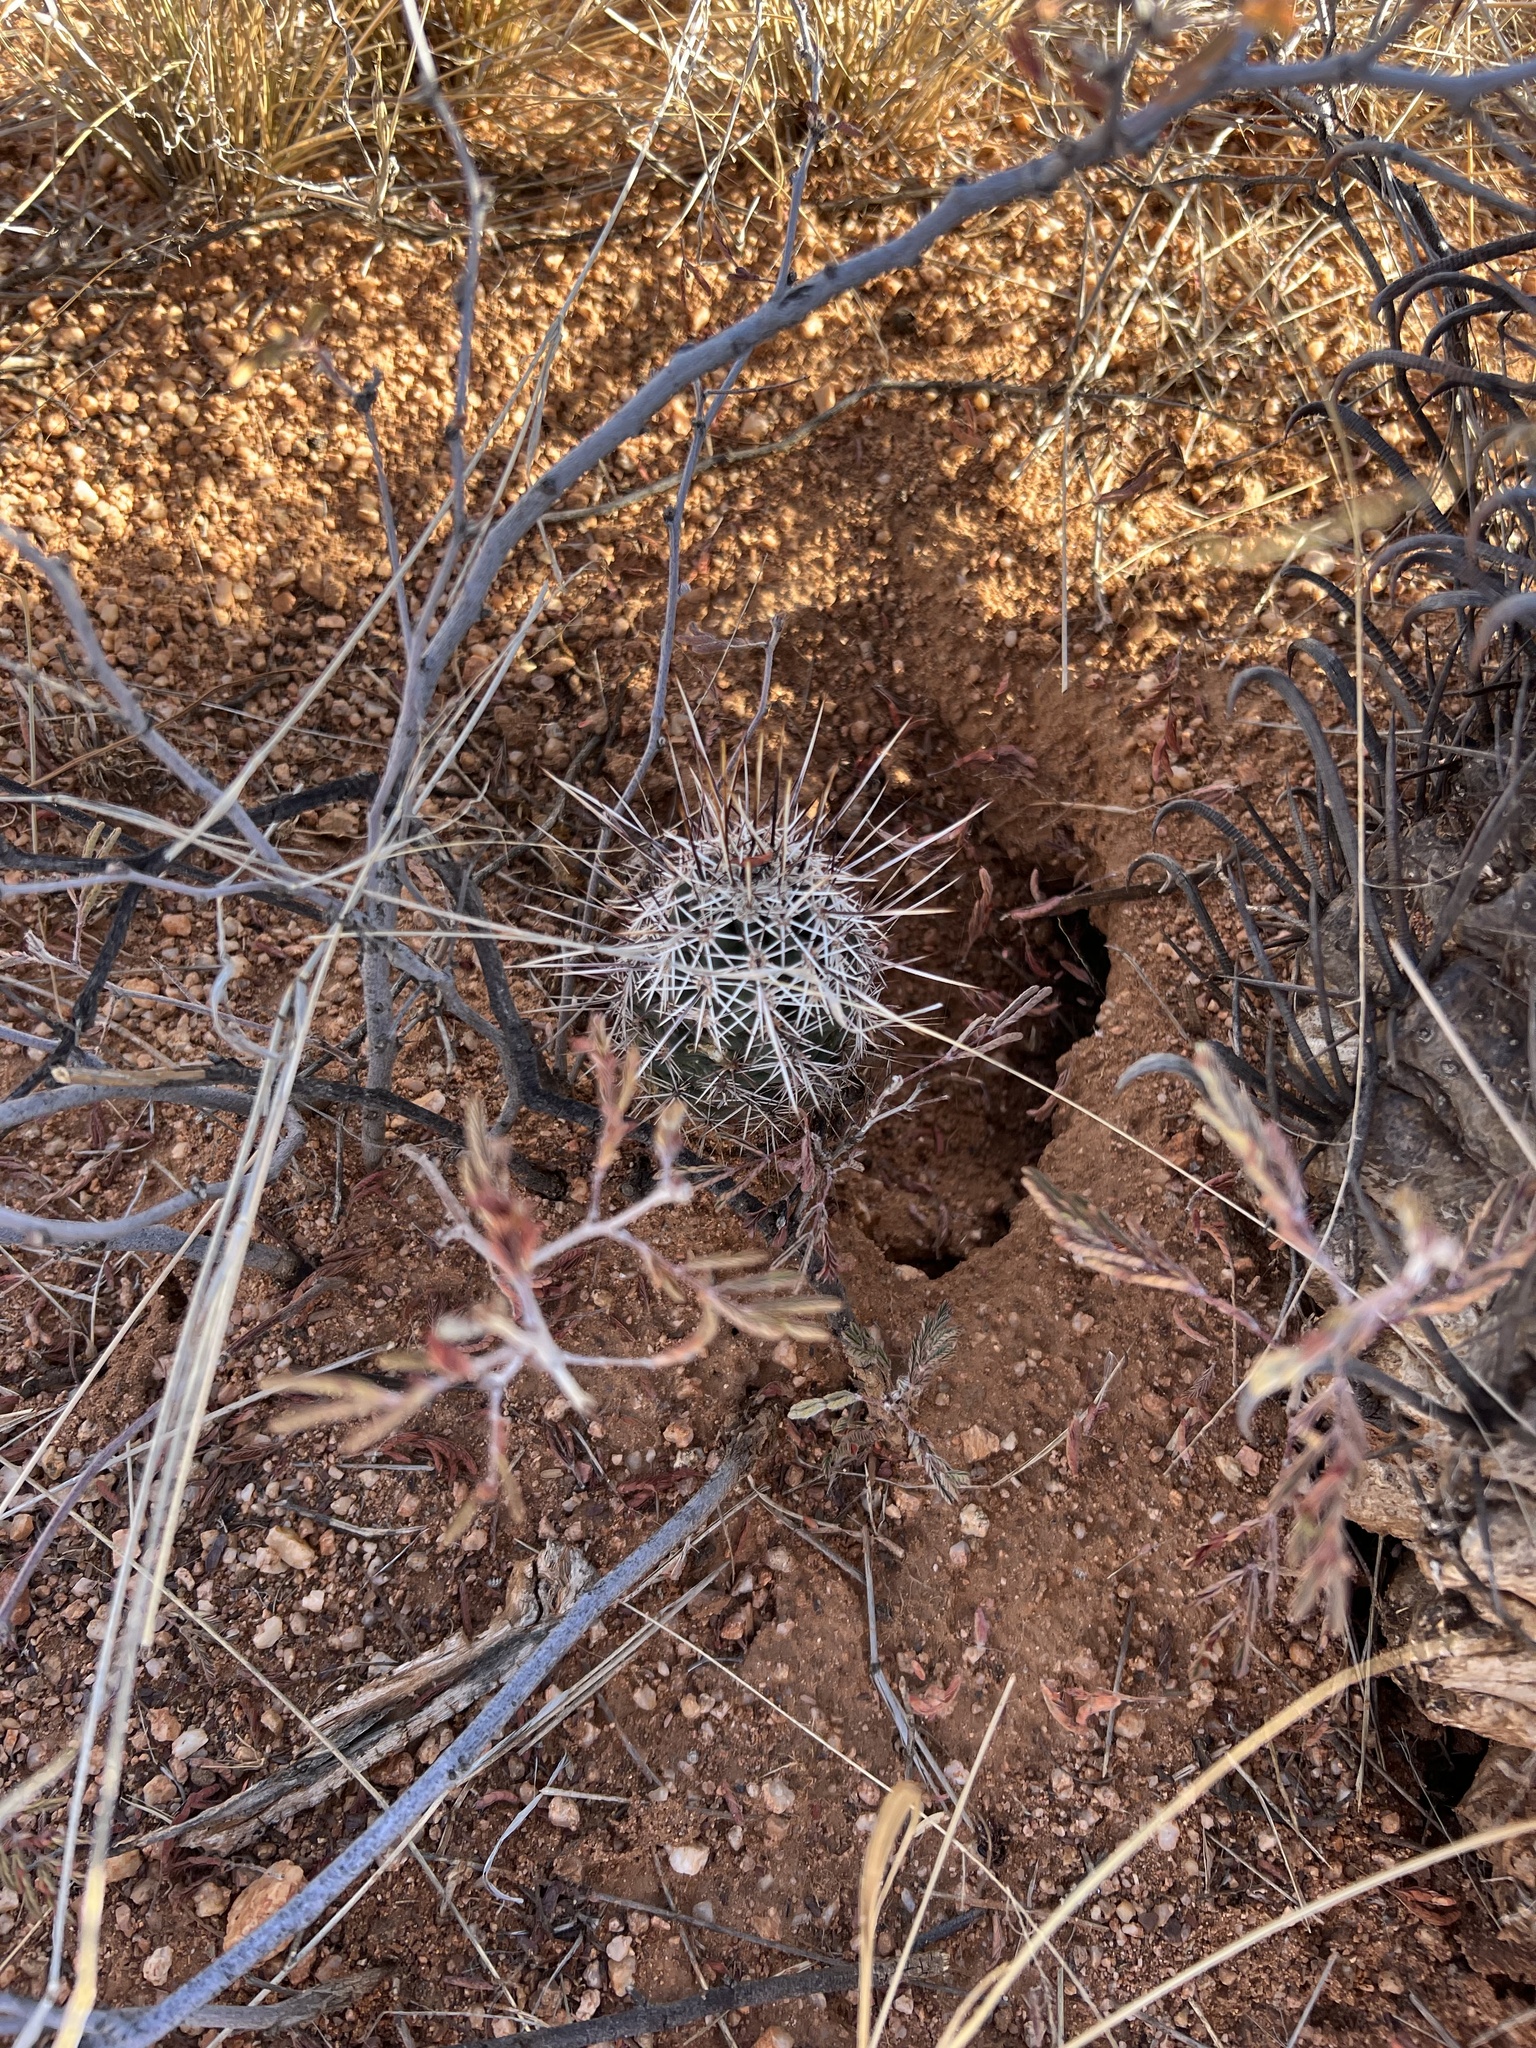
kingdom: Plantae
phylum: Tracheophyta
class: Magnoliopsida
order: Caryophyllales
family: Cactaceae
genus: Echinocereus
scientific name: Echinocereus fasciculatus
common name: Bundle hedgehog
